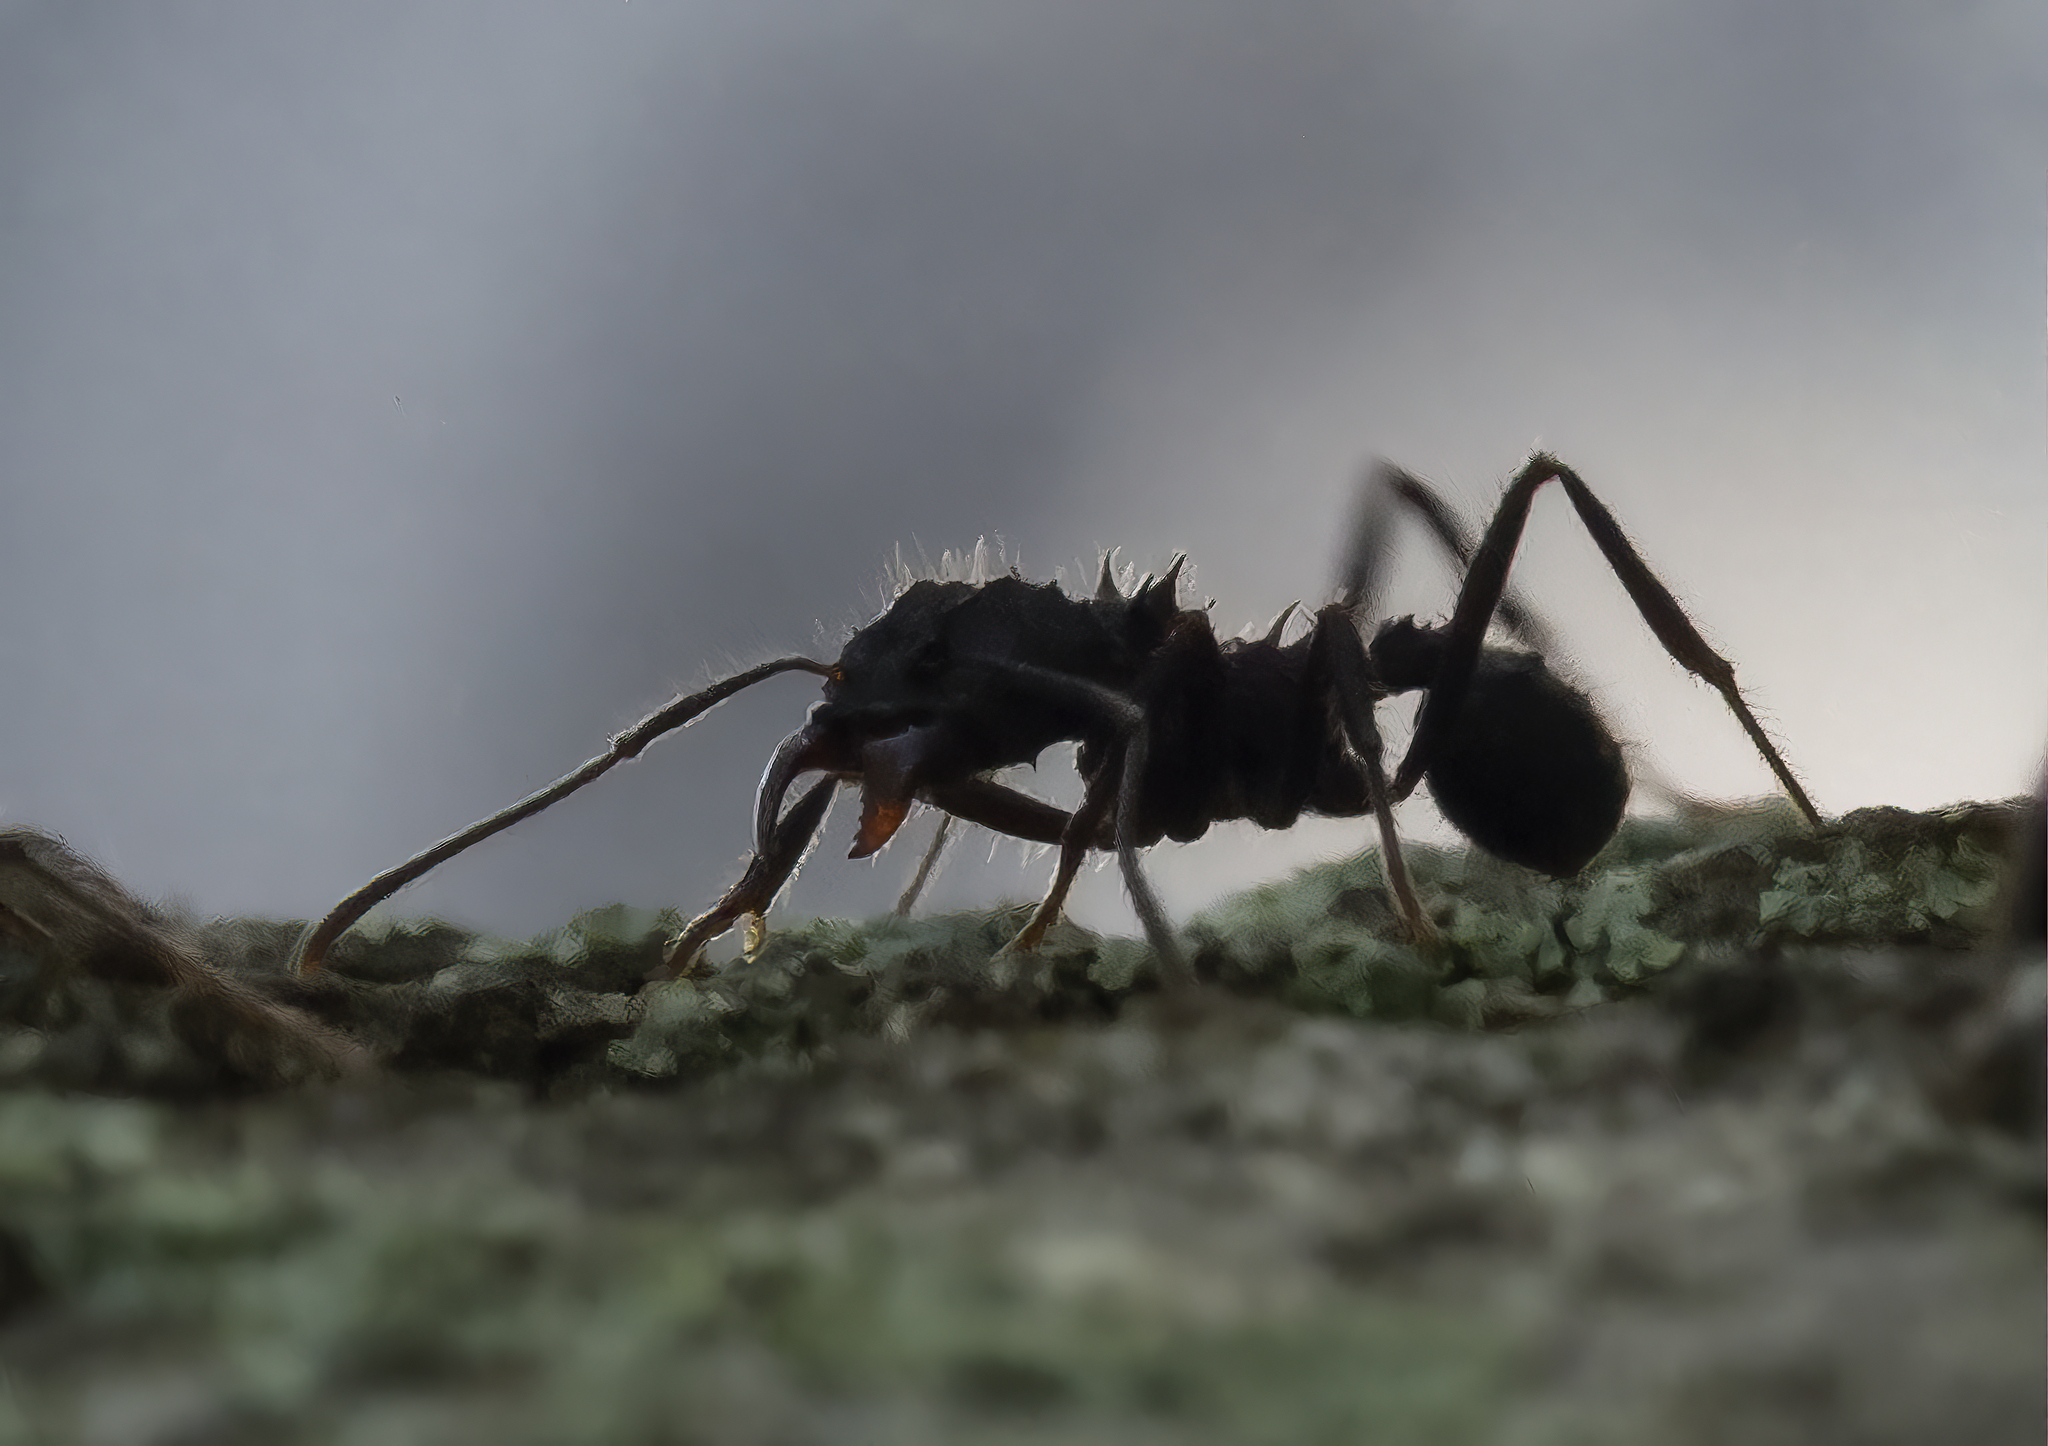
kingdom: Animalia
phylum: Arthropoda
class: Insecta
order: Hymenoptera
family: Formicidae
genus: Acromyrmex
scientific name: Acromyrmex
